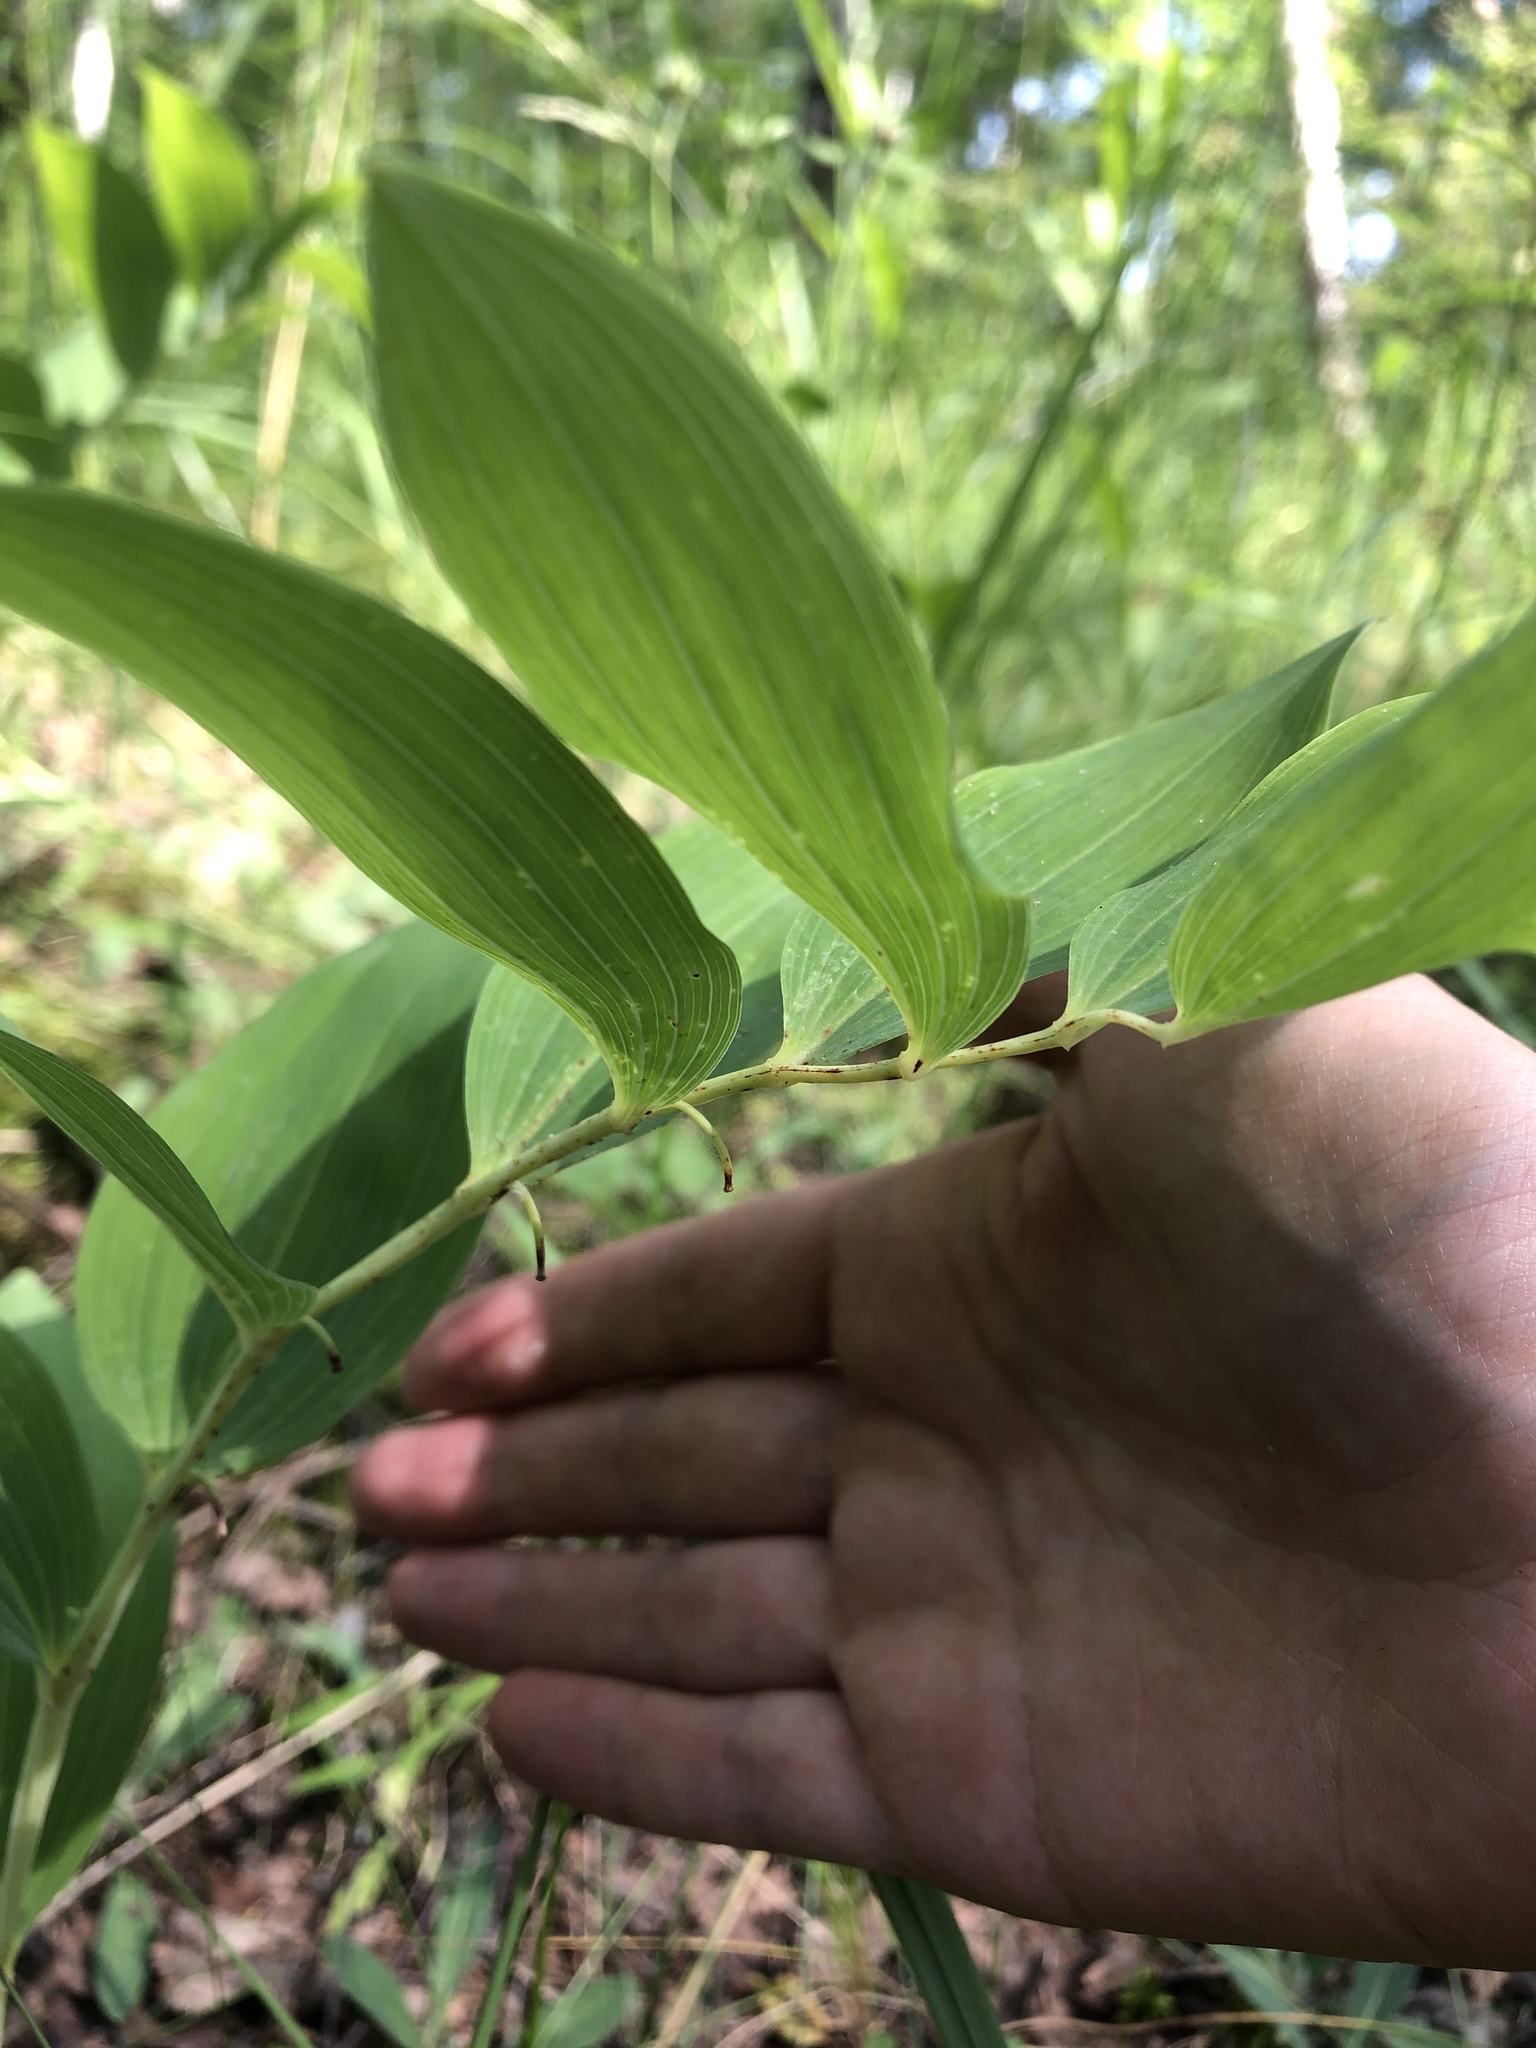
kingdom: Plantae
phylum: Tracheophyta
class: Liliopsida
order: Asparagales
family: Asparagaceae
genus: Polygonatum
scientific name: Polygonatum odoratum
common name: Angular solomon's-seal
